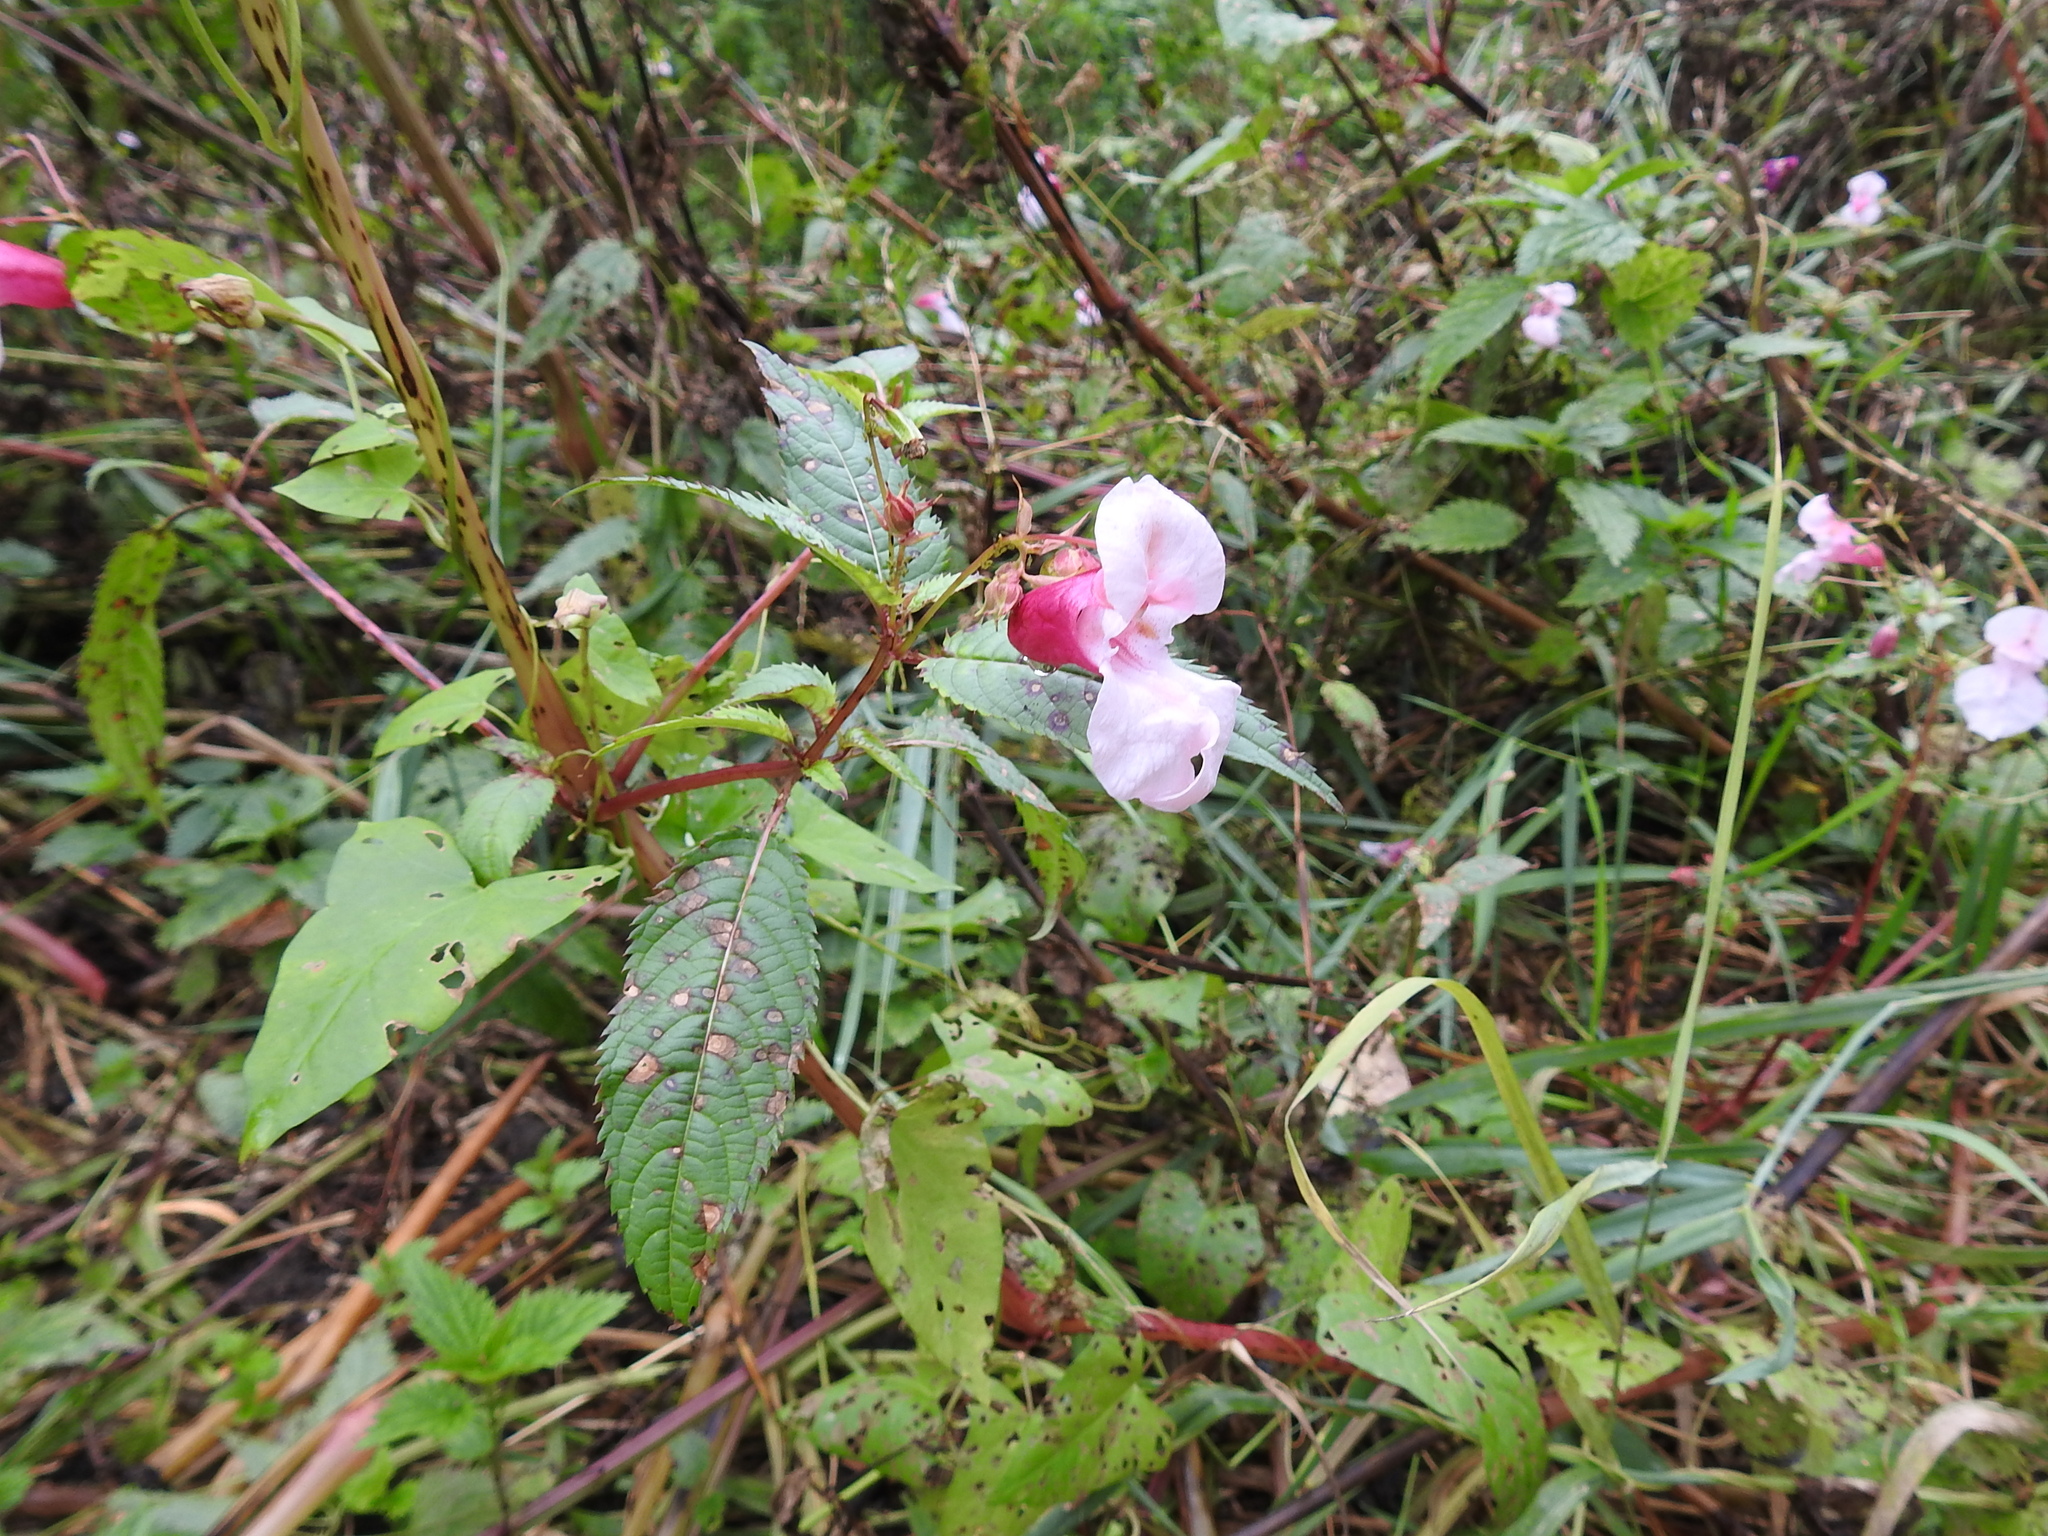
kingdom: Plantae
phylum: Tracheophyta
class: Magnoliopsida
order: Ericales
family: Balsaminaceae
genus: Impatiens
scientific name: Impatiens glandulifera
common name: Himalayan balsam
